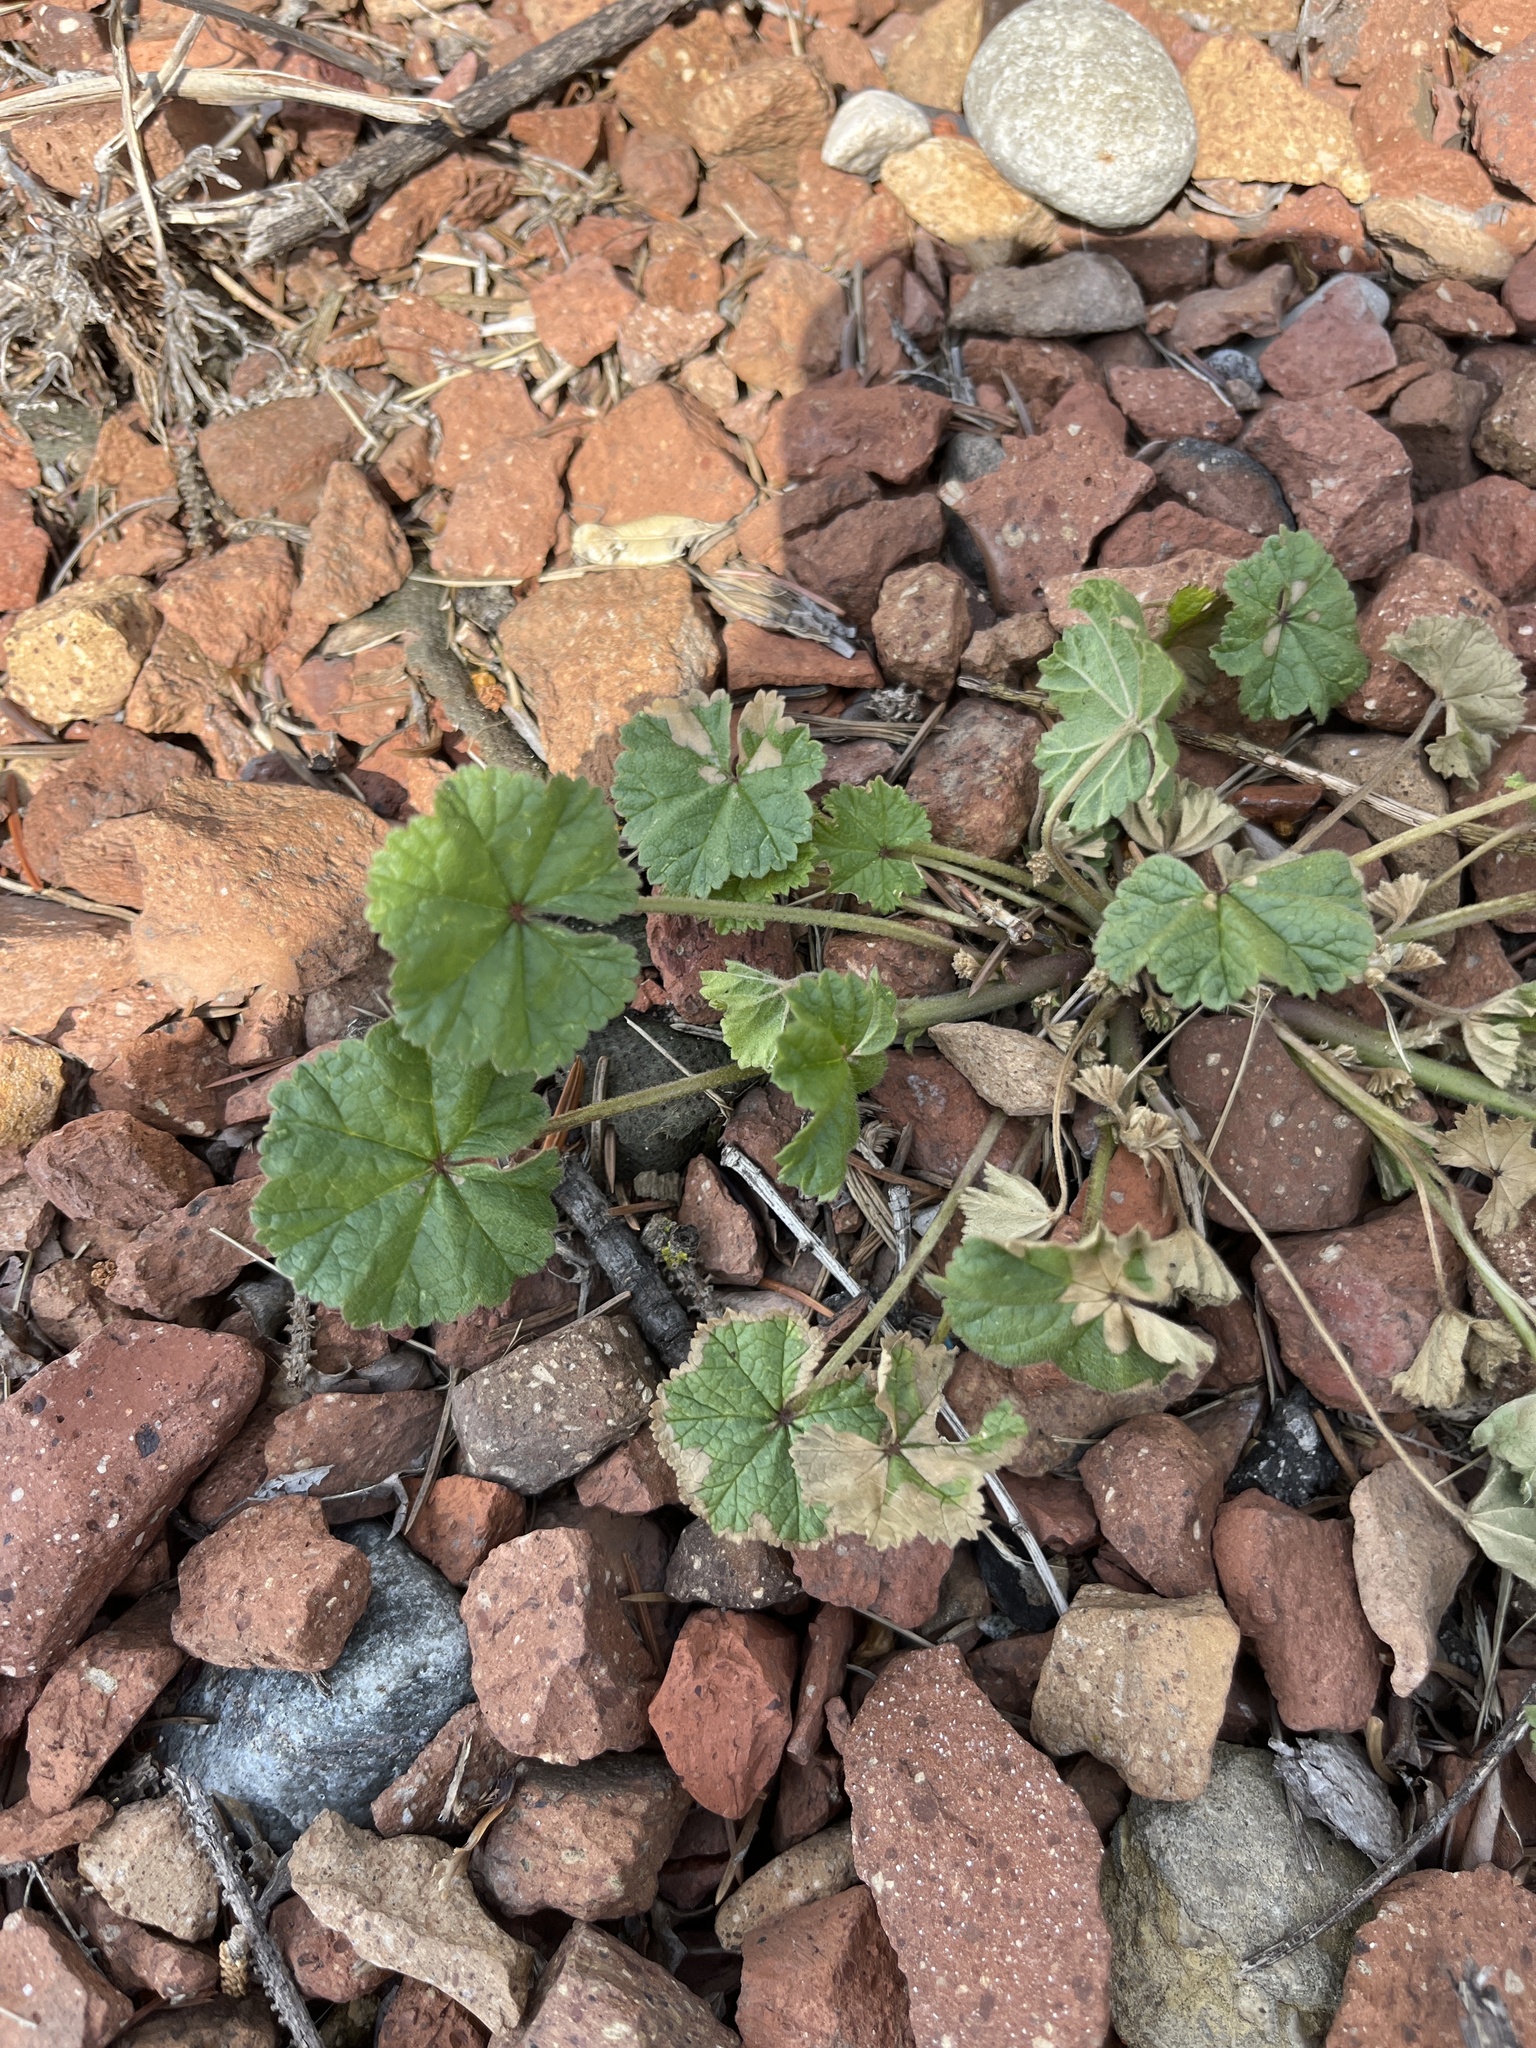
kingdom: Plantae
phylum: Tracheophyta
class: Magnoliopsida
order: Malvales
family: Malvaceae
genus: Malva
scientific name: Malva neglecta
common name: Common mallow
